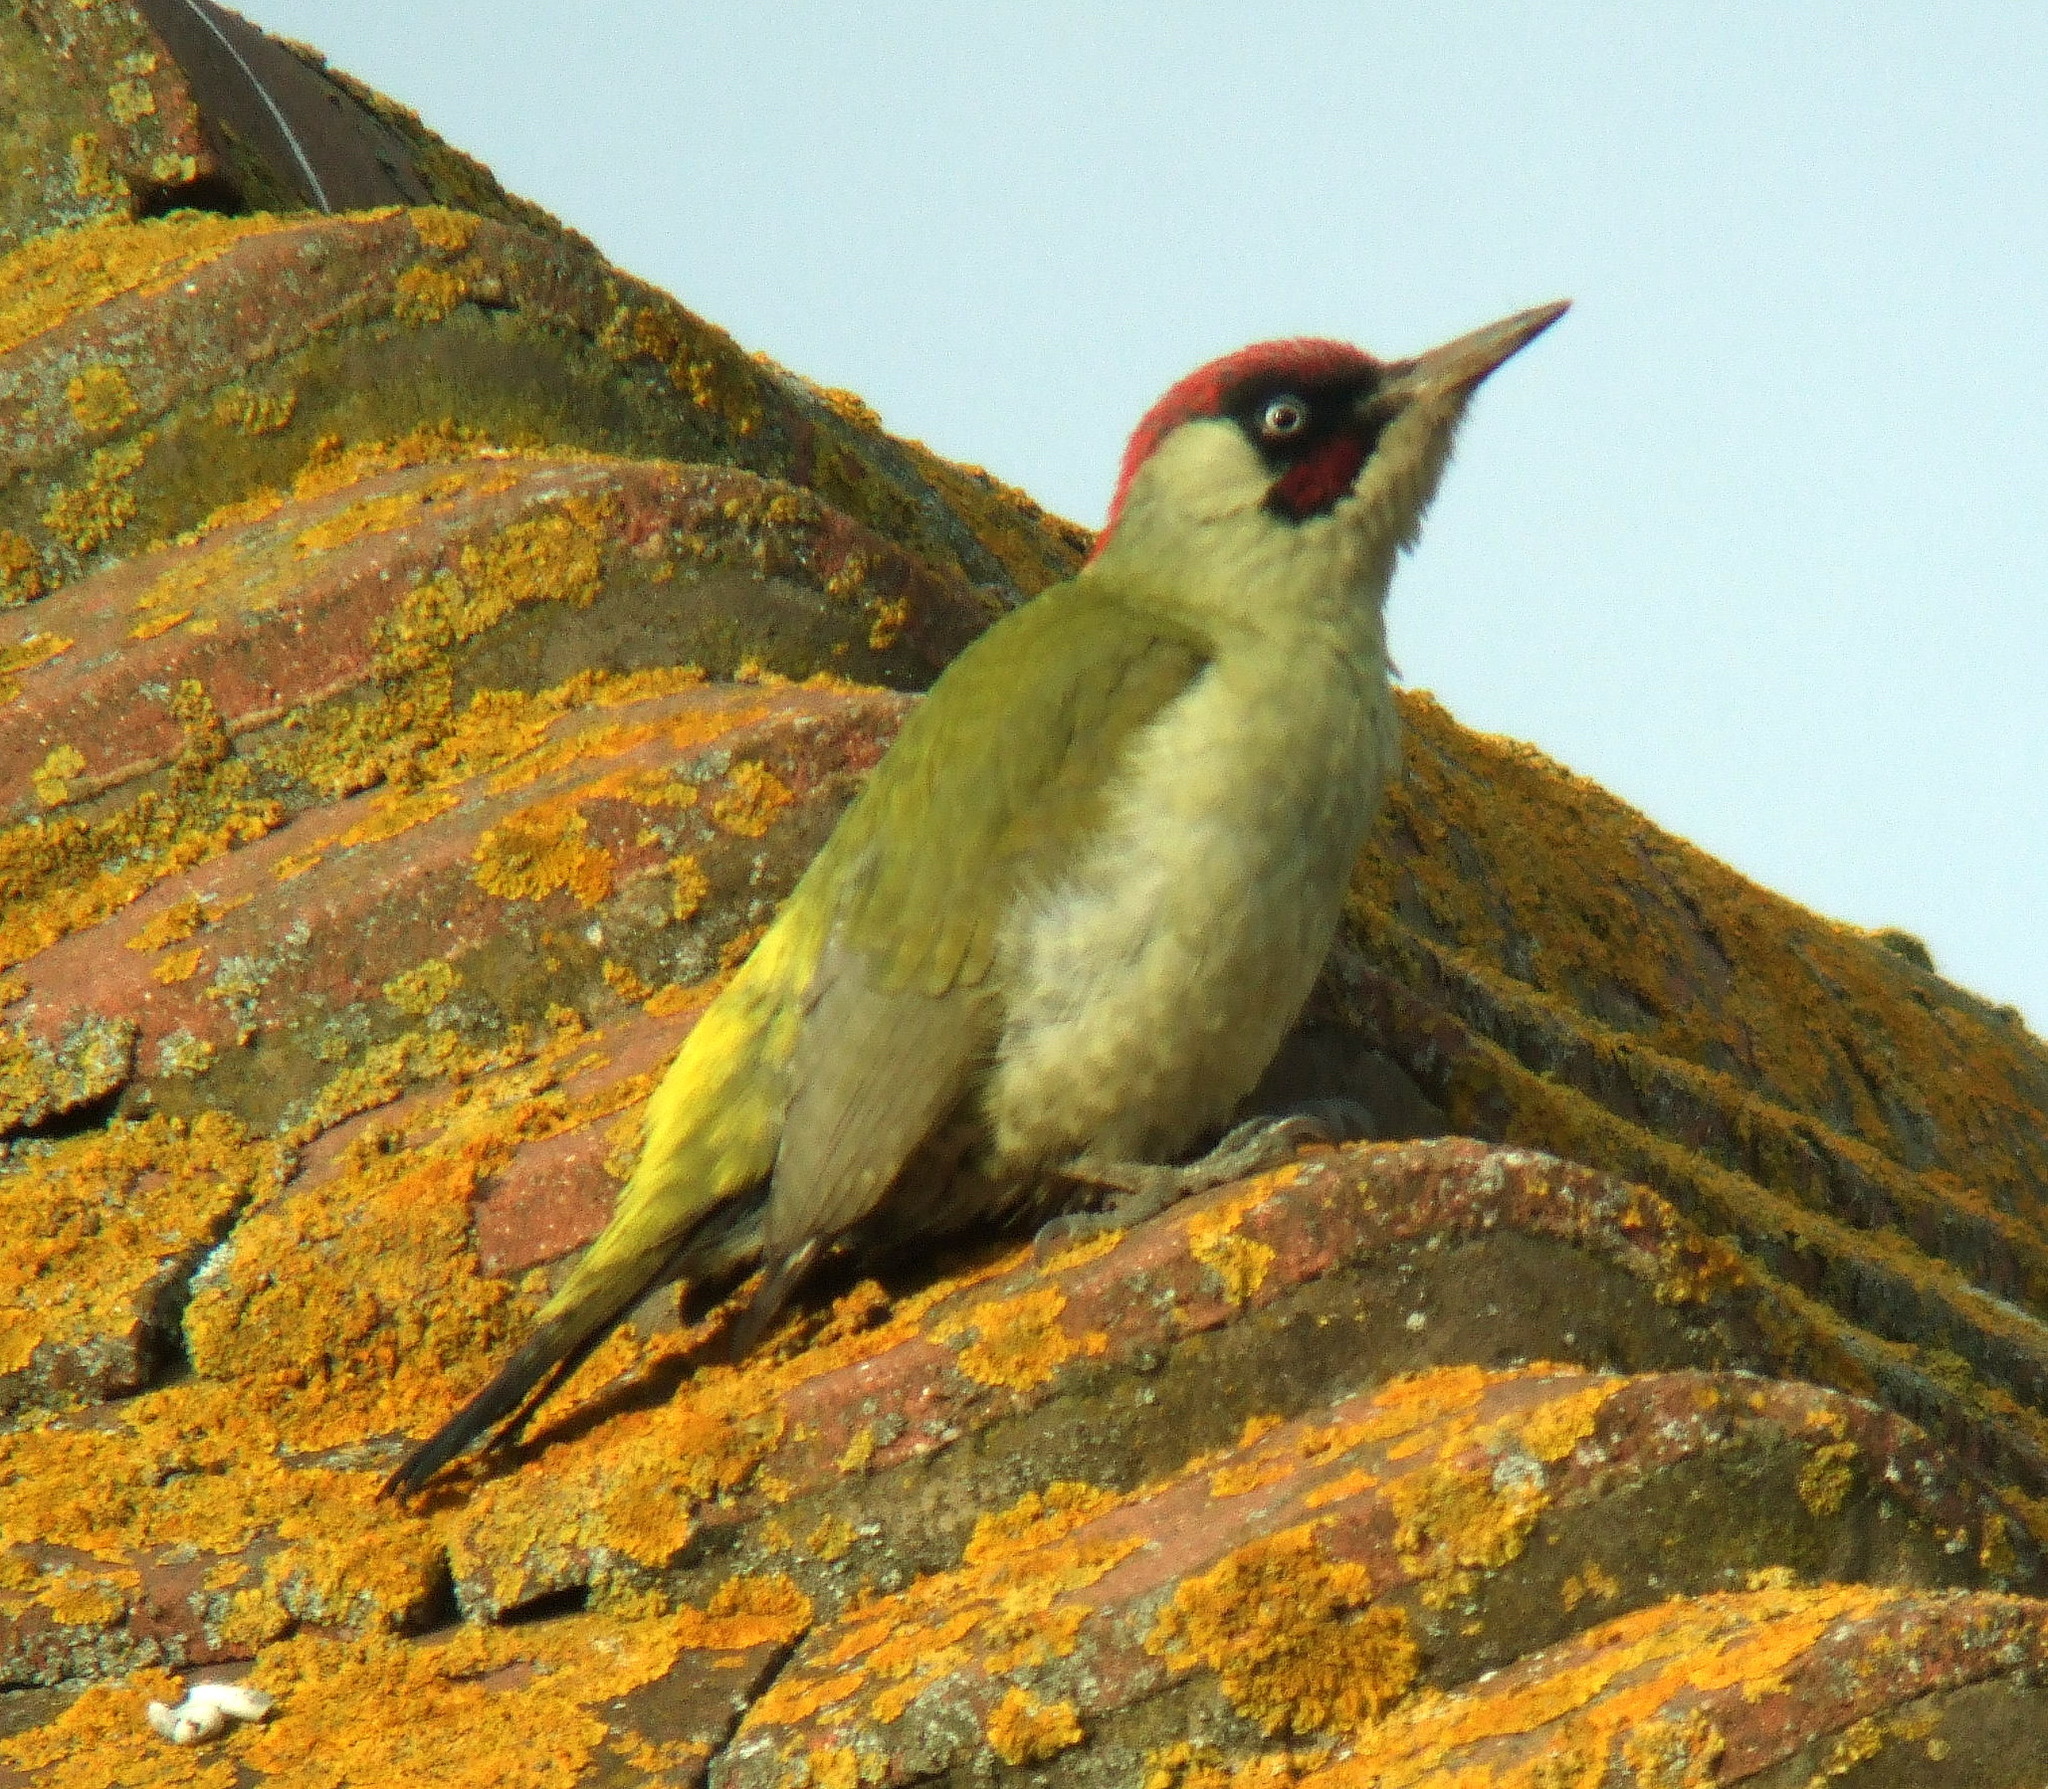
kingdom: Animalia
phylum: Chordata
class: Aves
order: Piciformes
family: Picidae
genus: Picus
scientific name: Picus viridis
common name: European green woodpecker
